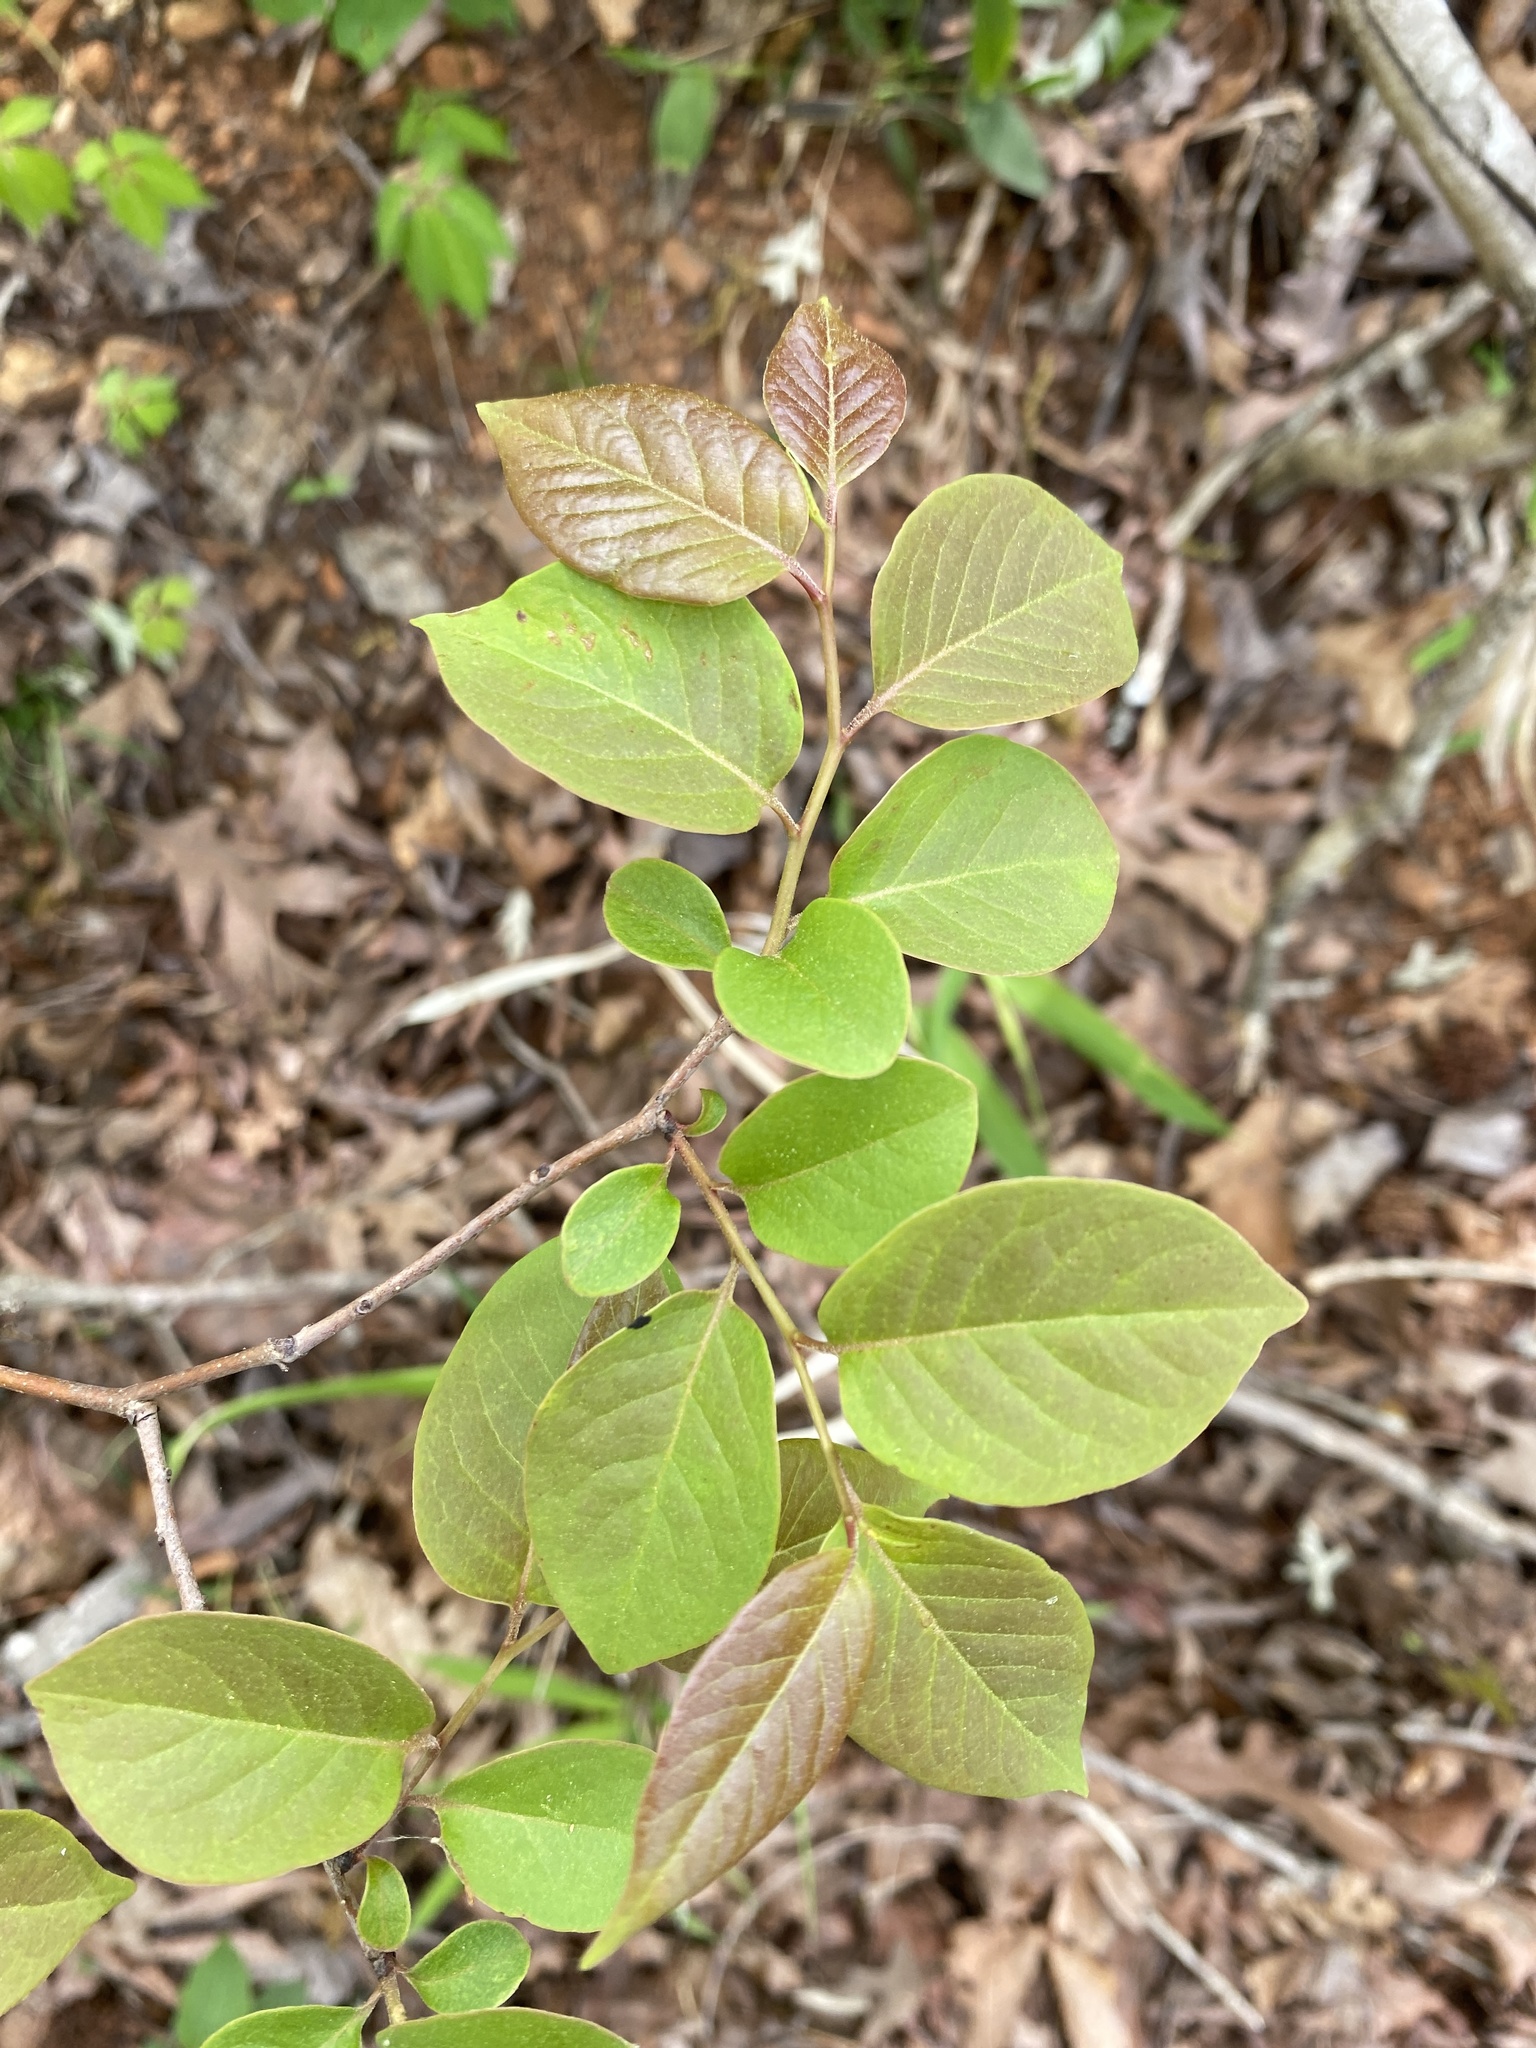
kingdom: Plantae
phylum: Tracheophyta
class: Magnoliopsida
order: Ericales
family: Ebenaceae
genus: Diospyros
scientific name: Diospyros virginiana
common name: Persimmon
